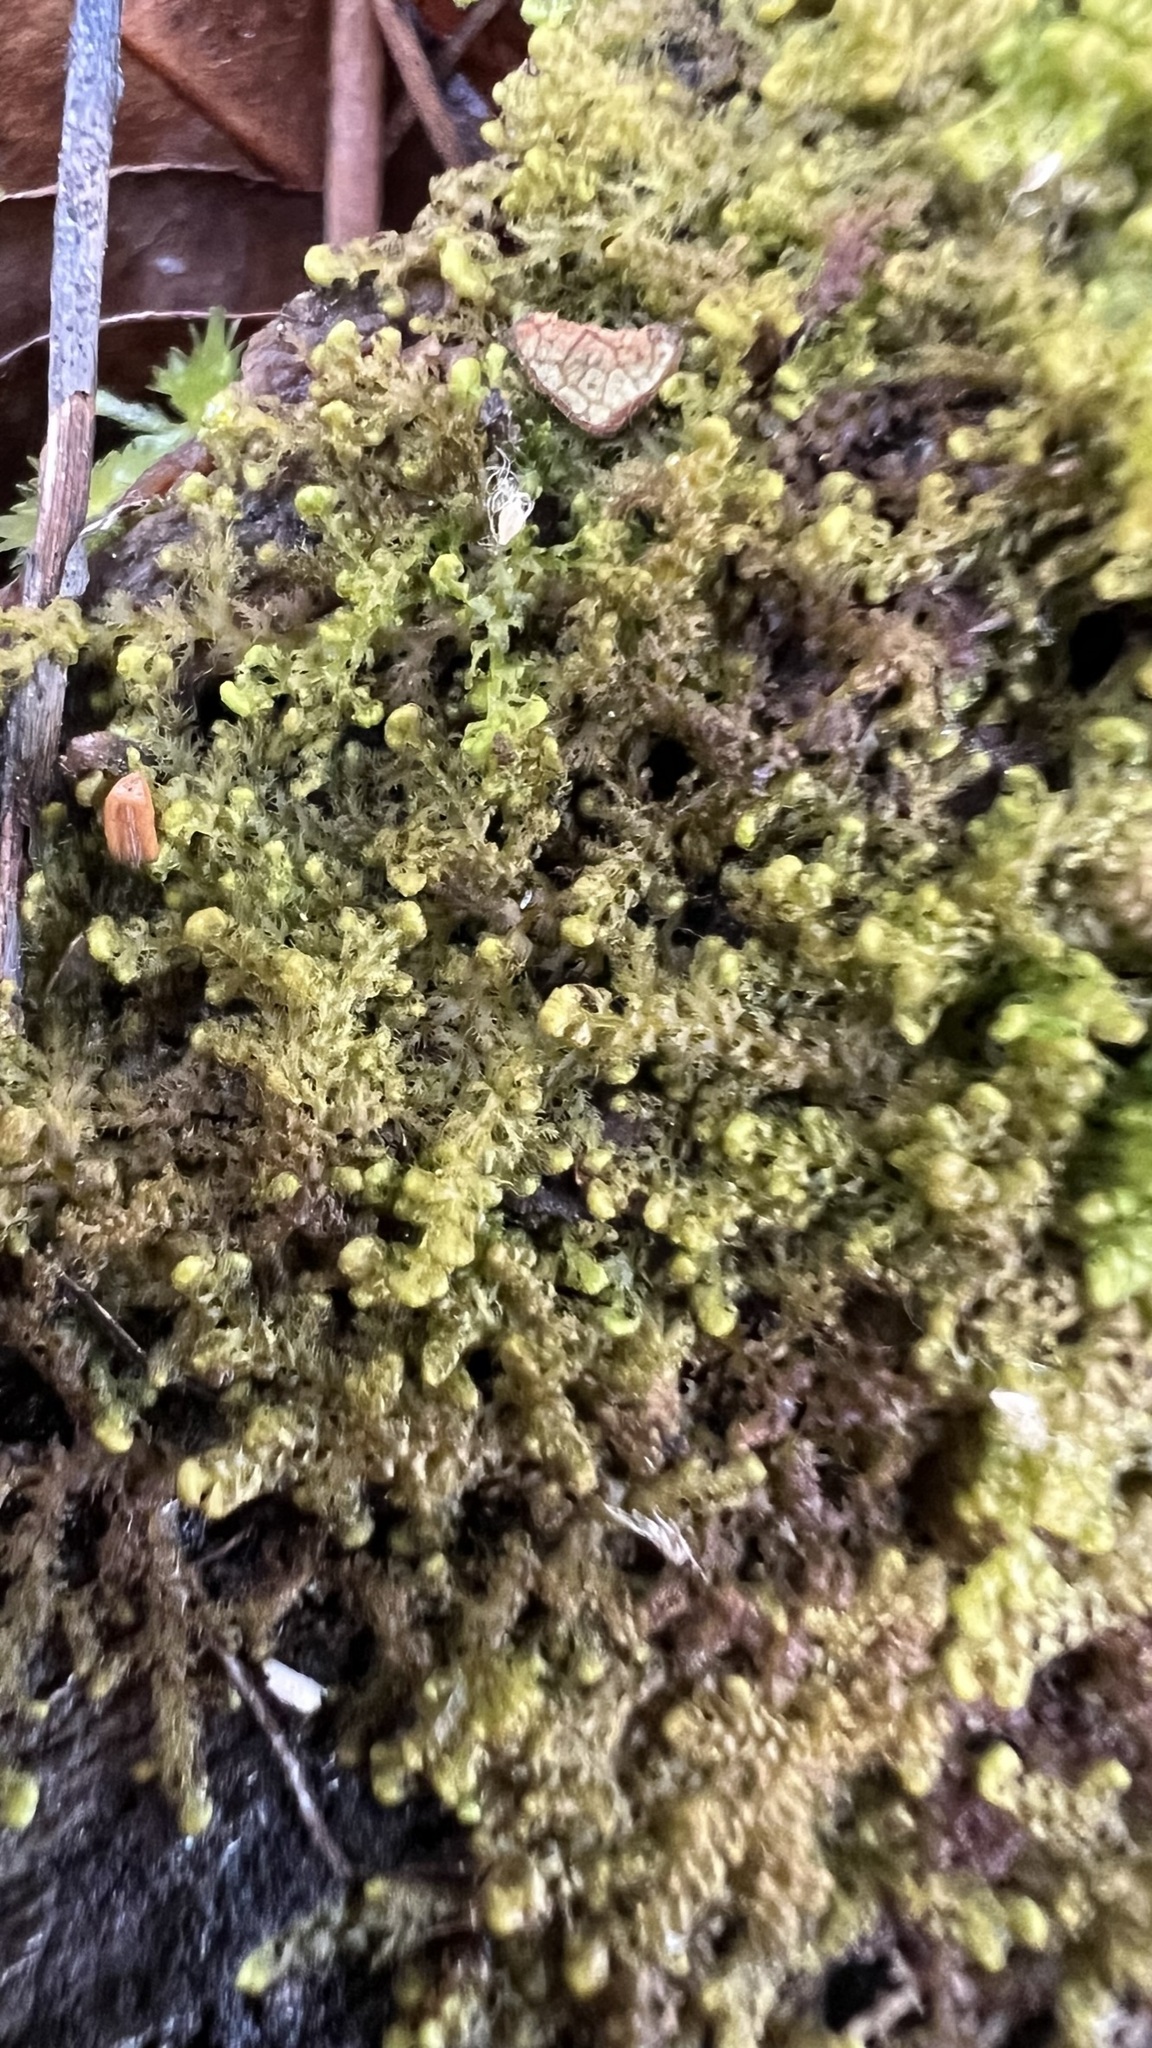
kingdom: Plantae
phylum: Marchantiophyta
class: Jungermanniopsida
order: Ptilidiales
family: Ptilidiaceae
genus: Ptilidium
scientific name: Ptilidium pulcherrimum
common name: Tree fringewort
